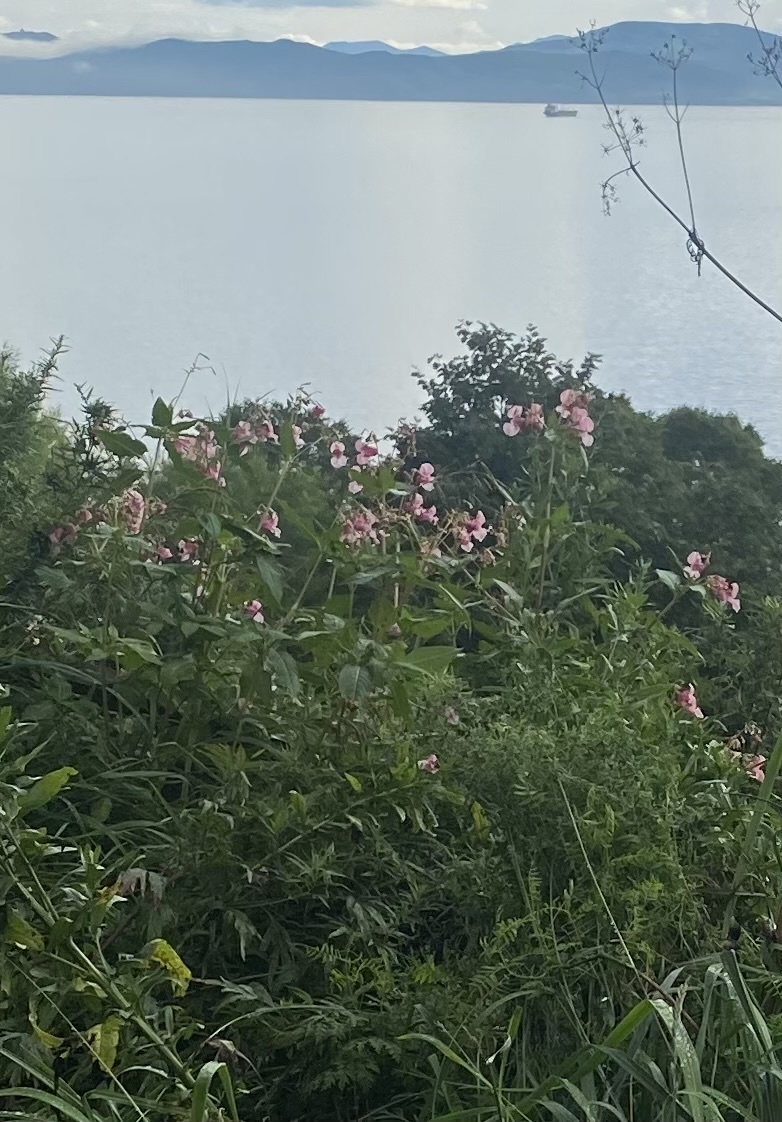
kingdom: Plantae
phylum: Tracheophyta
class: Magnoliopsida
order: Ericales
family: Balsaminaceae
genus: Impatiens
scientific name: Impatiens glandulifera
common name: Himalayan balsam
